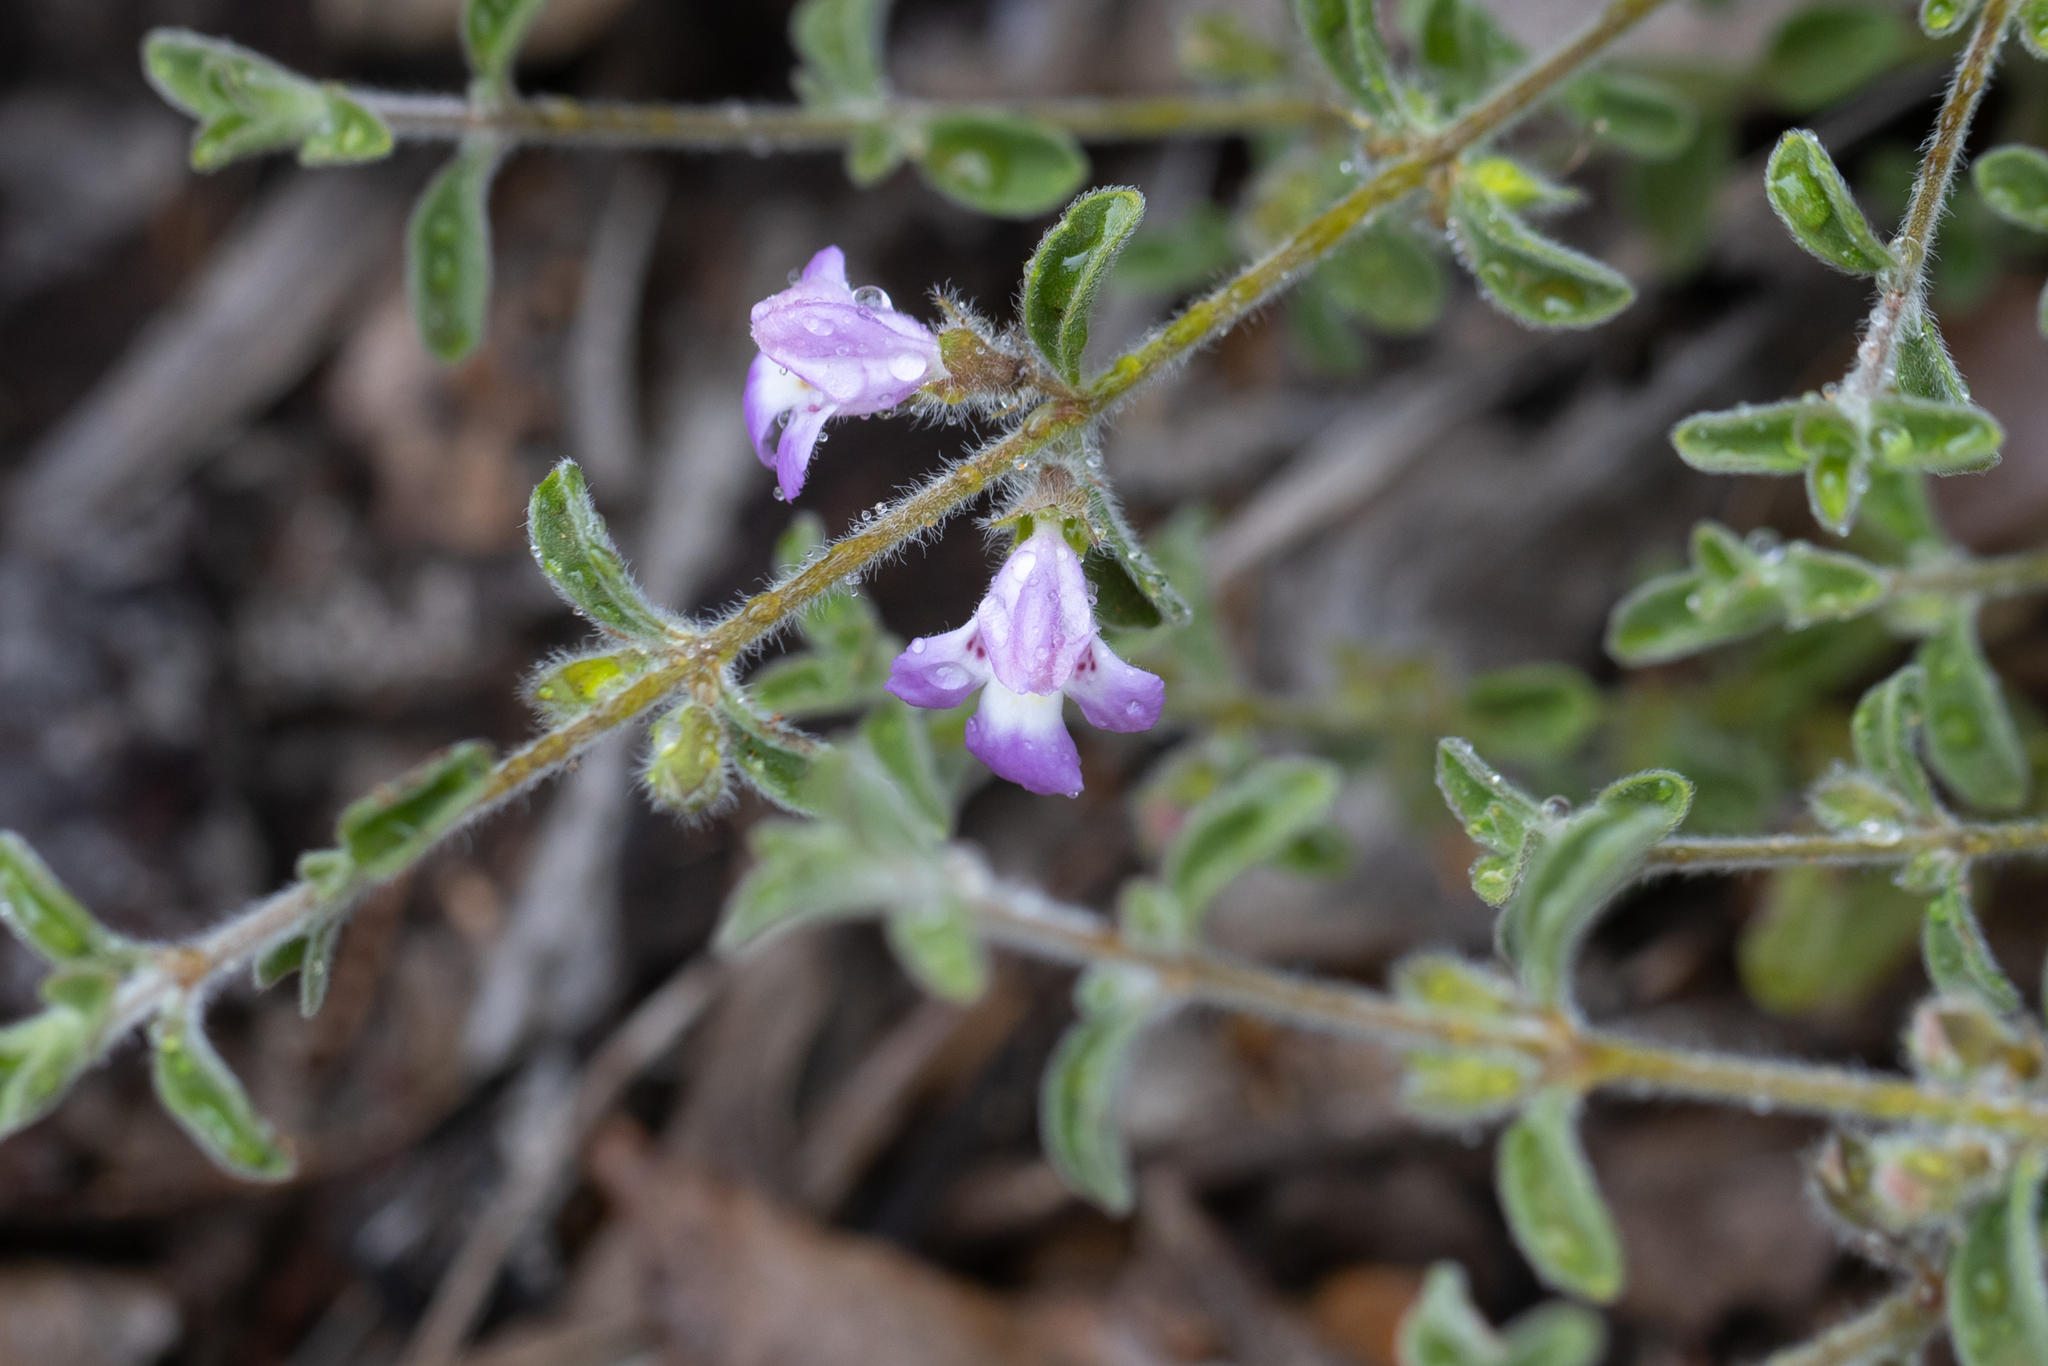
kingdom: Plantae
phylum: Tracheophyta
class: Magnoliopsida
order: Lamiales
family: Lamiaceae
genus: Hemigenia
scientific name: Hemigenia incana
